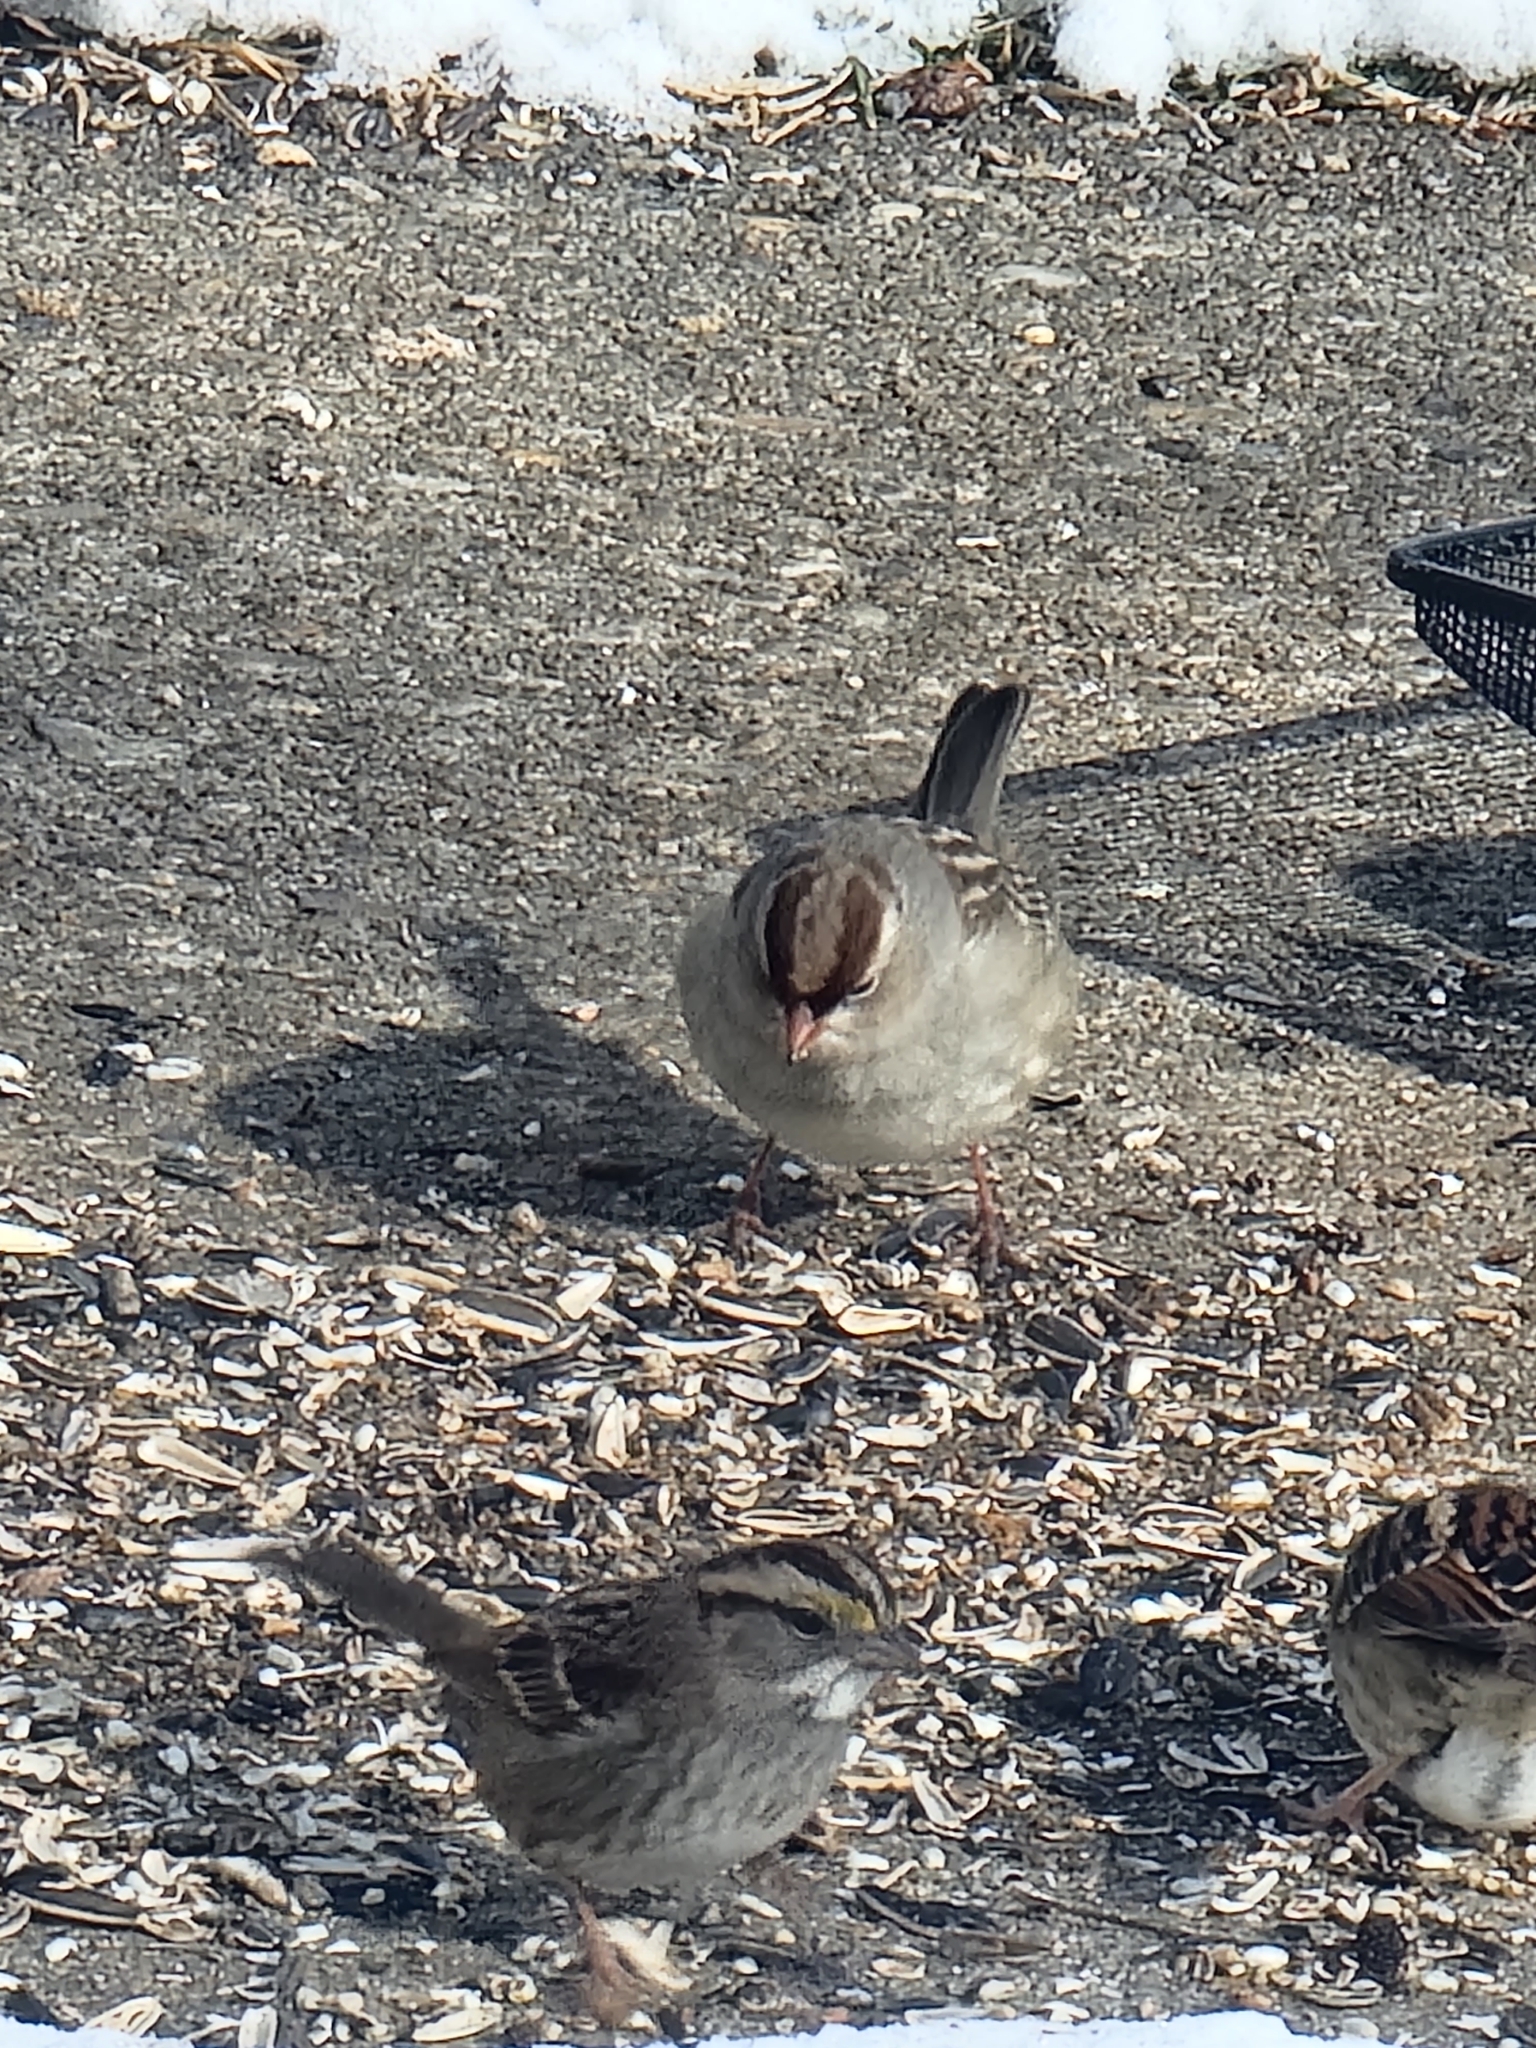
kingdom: Animalia
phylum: Chordata
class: Aves
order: Passeriformes
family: Passerellidae
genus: Zonotrichia
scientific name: Zonotrichia leucophrys
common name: White-crowned sparrow
